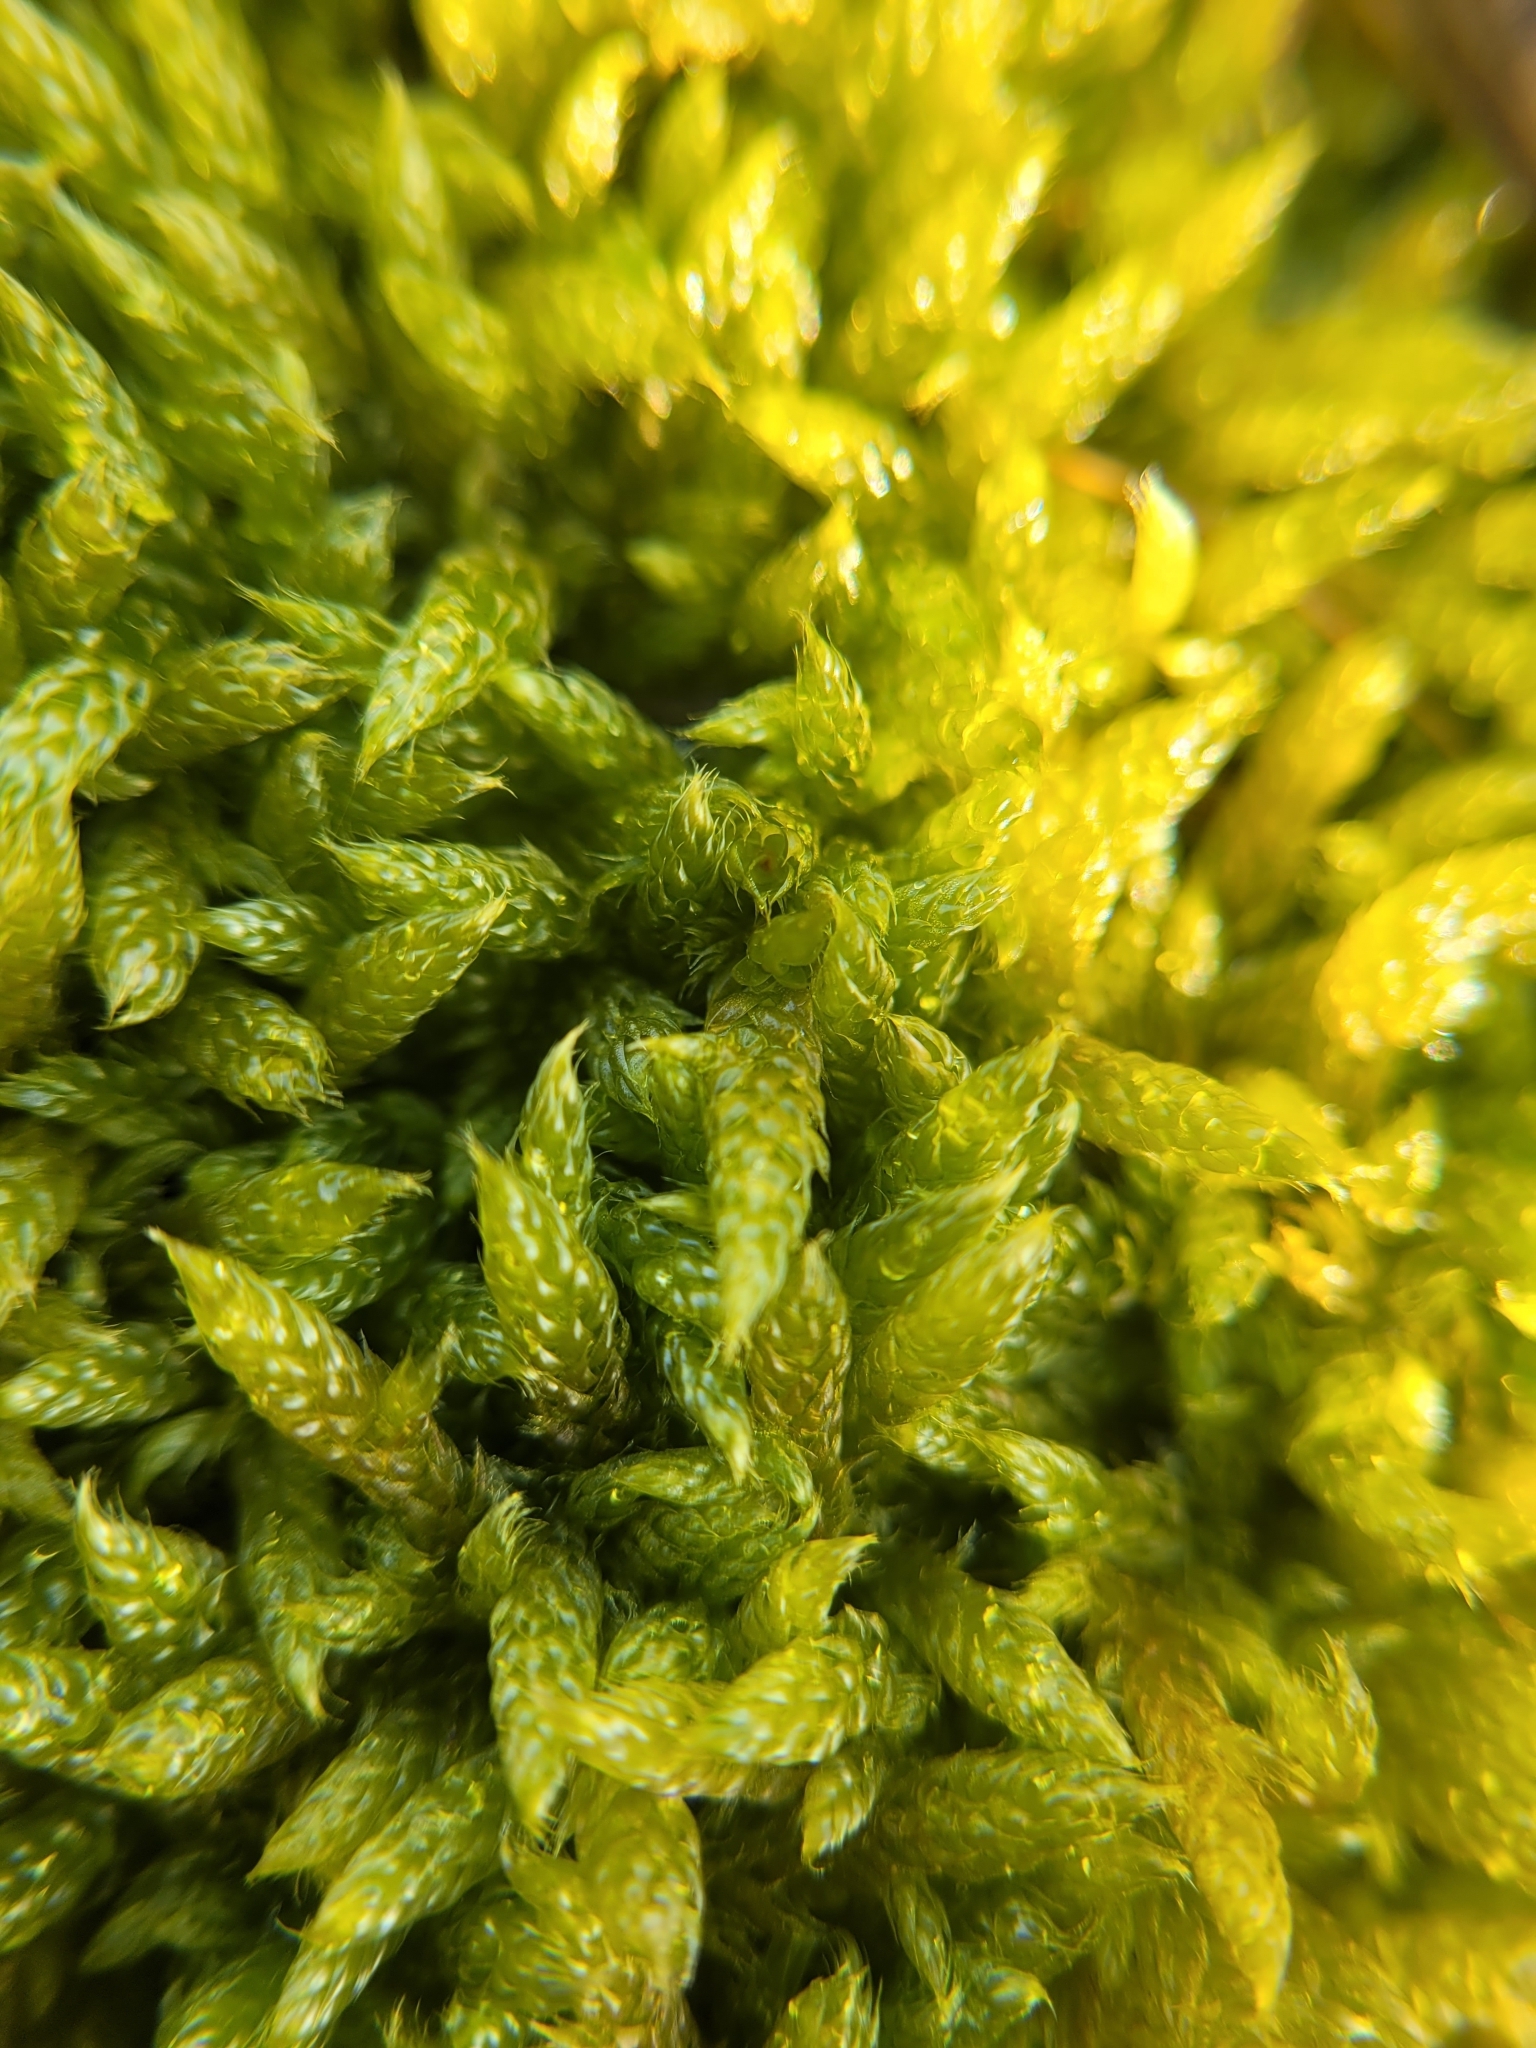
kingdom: Plantae
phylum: Bryophyta
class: Bryopsida
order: Hypnales
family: Hypnaceae
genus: Hypnum
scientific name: Hypnum cupressiforme
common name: Cypress-leaved plait-moss
